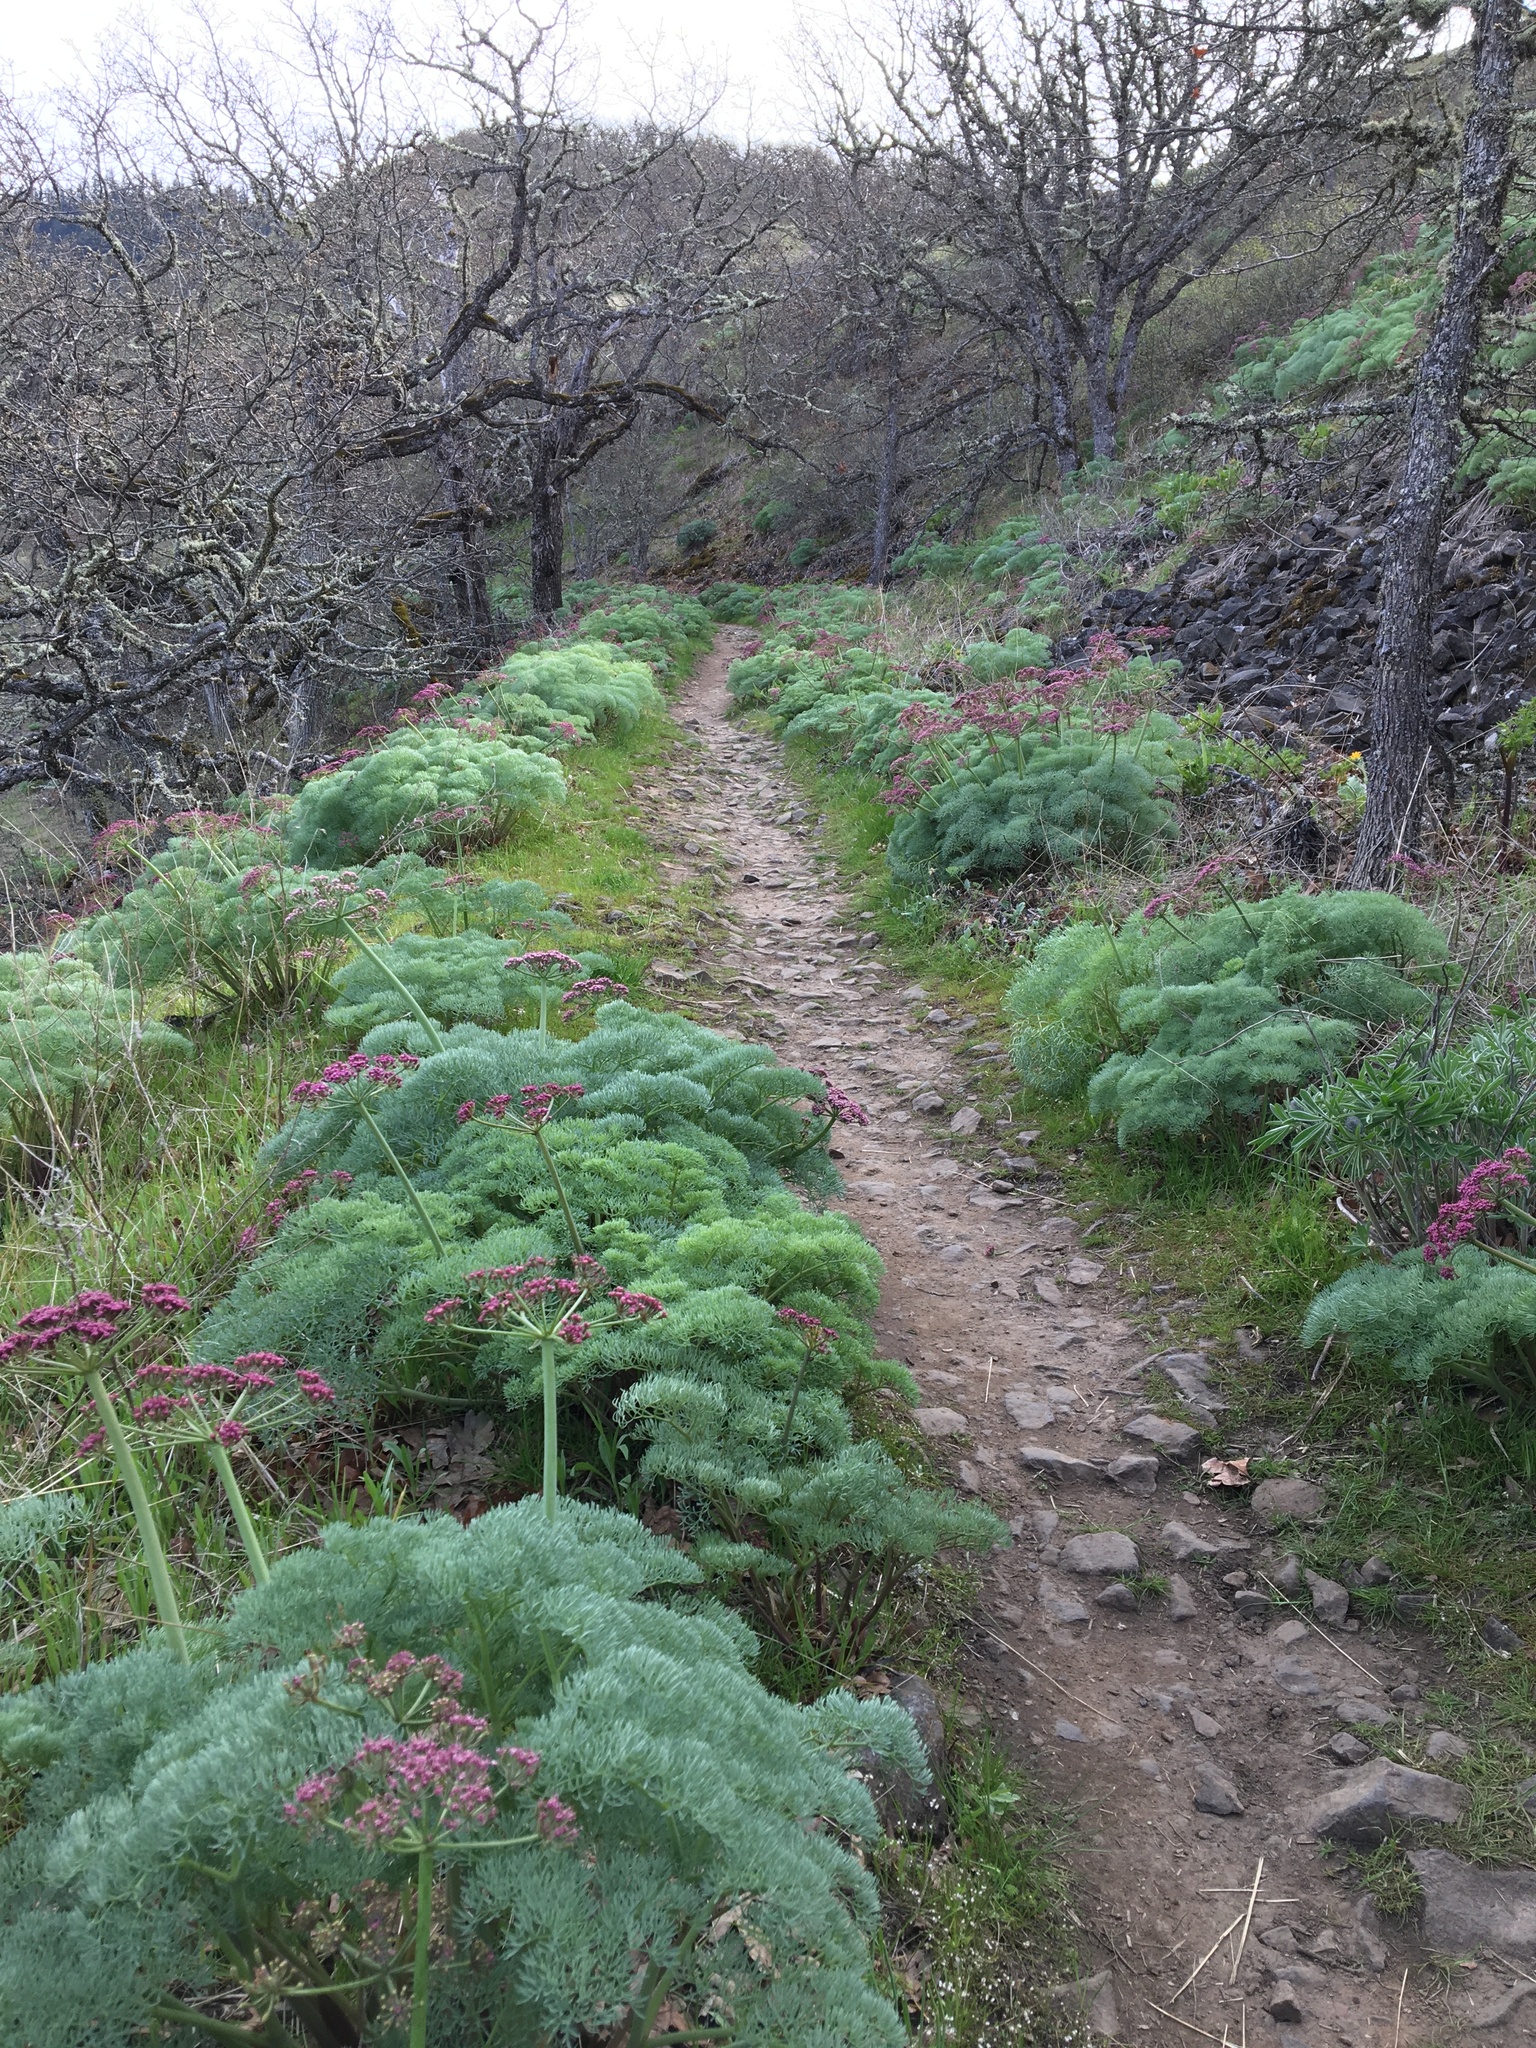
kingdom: Plantae
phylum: Tracheophyta
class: Magnoliopsida
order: Apiales
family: Apiaceae
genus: Lomatium
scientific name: Lomatium columbianum
